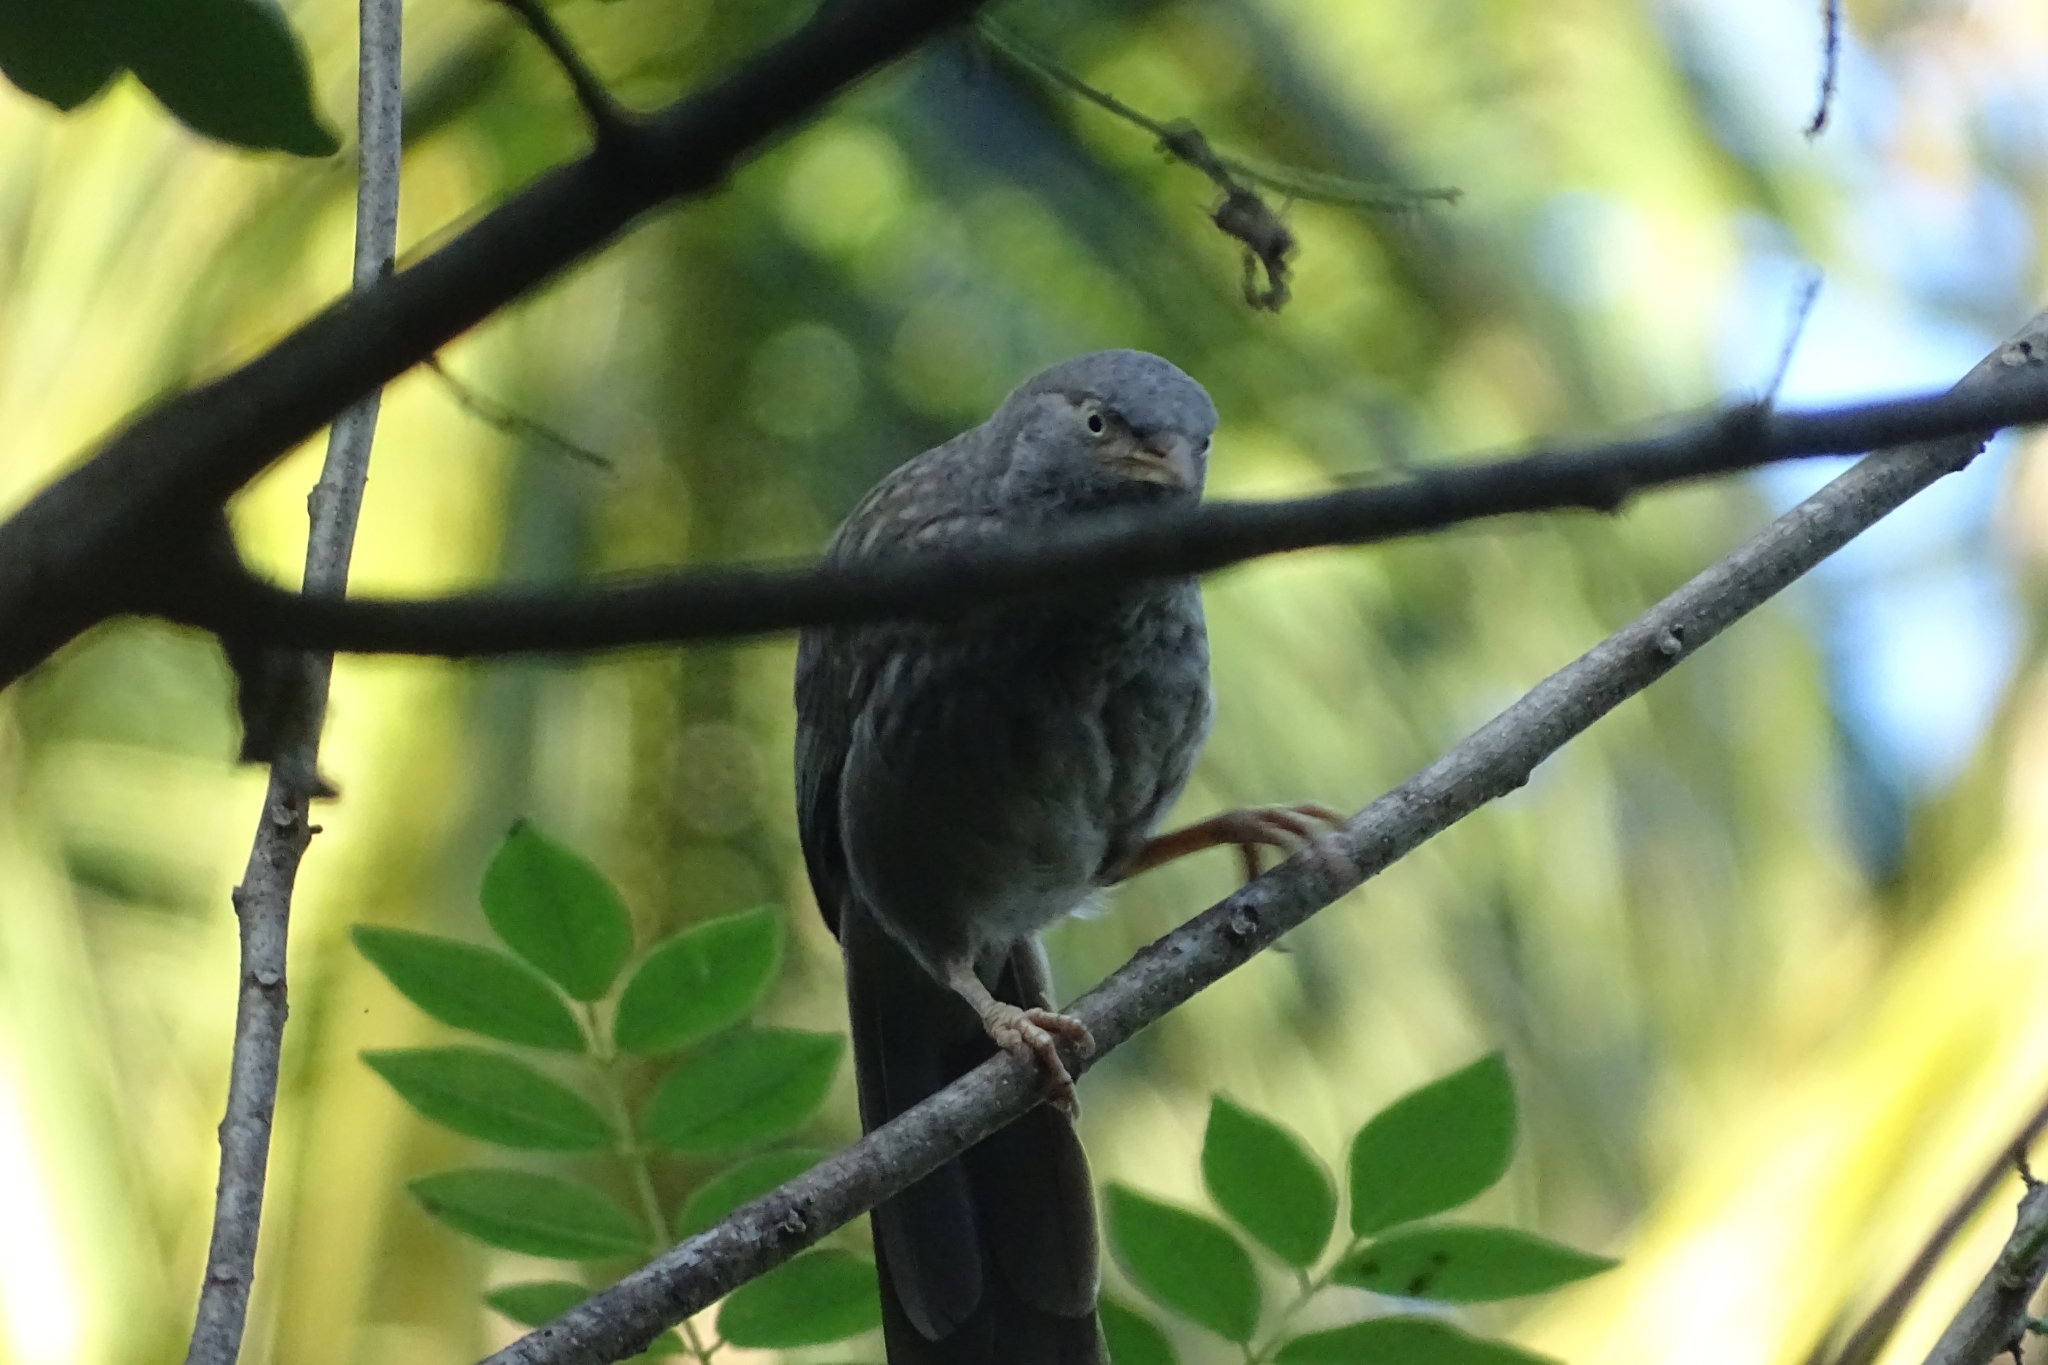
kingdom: Animalia
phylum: Chordata
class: Aves
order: Passeriformes
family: Leiothrichidae
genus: Turdoides
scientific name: Turdoides striata
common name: Jungle babbler
